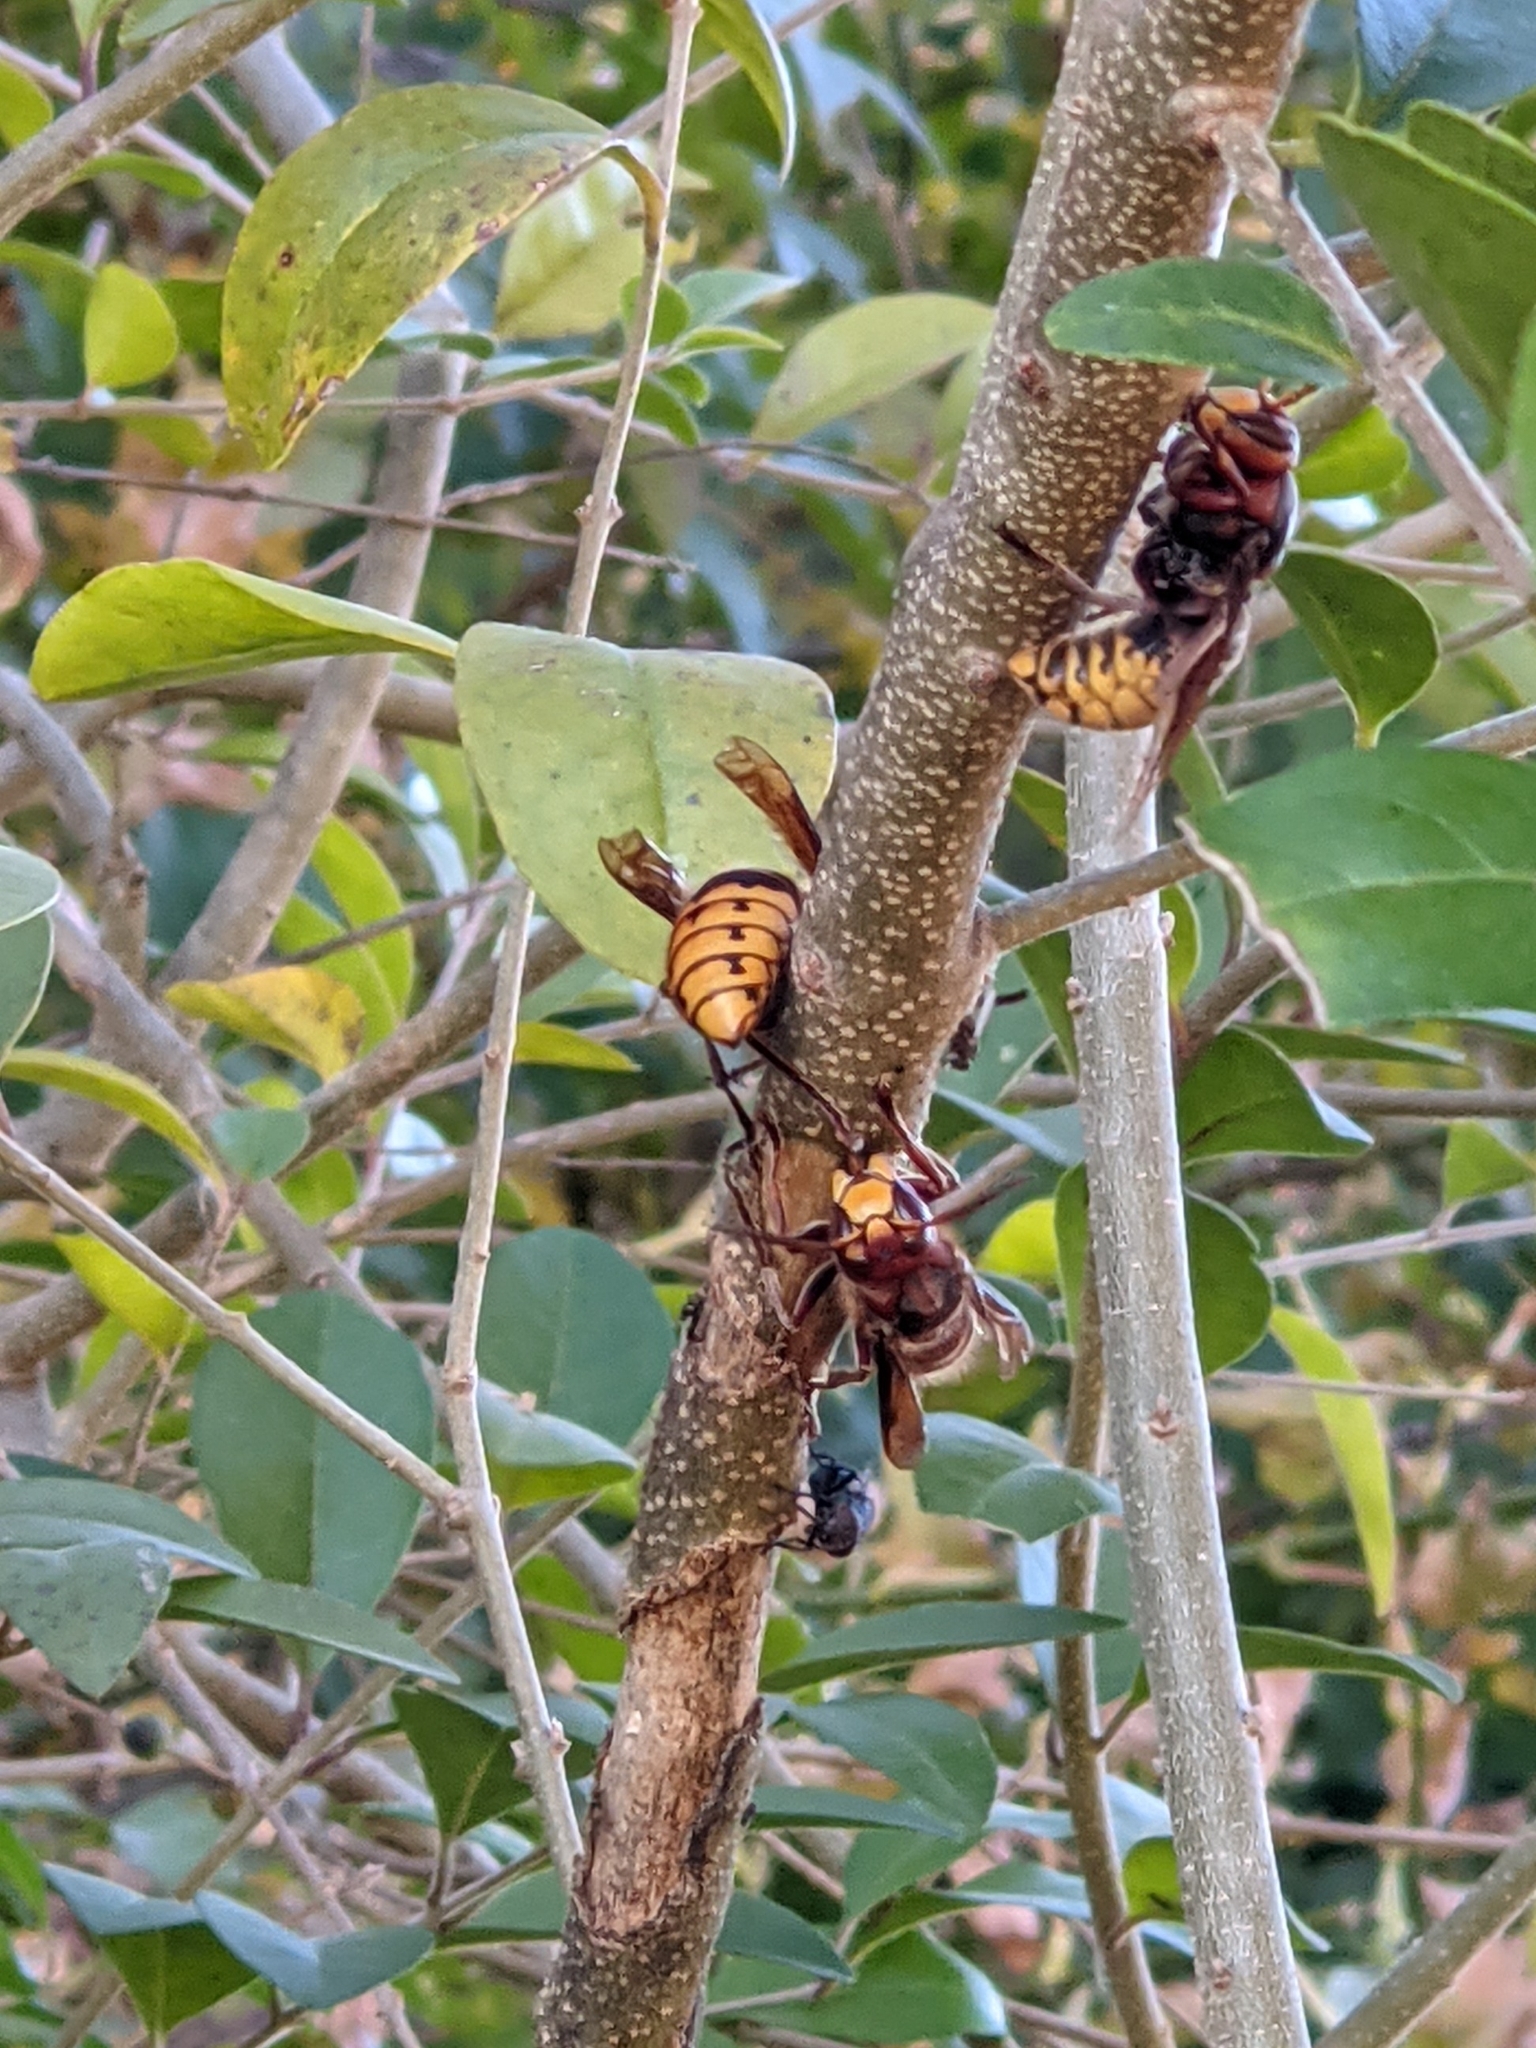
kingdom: Animalia
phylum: Arthropoda
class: Insecta
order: Hymenoptera
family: Vespidae
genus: Vespa
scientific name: Vespa crabro
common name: Hornet
